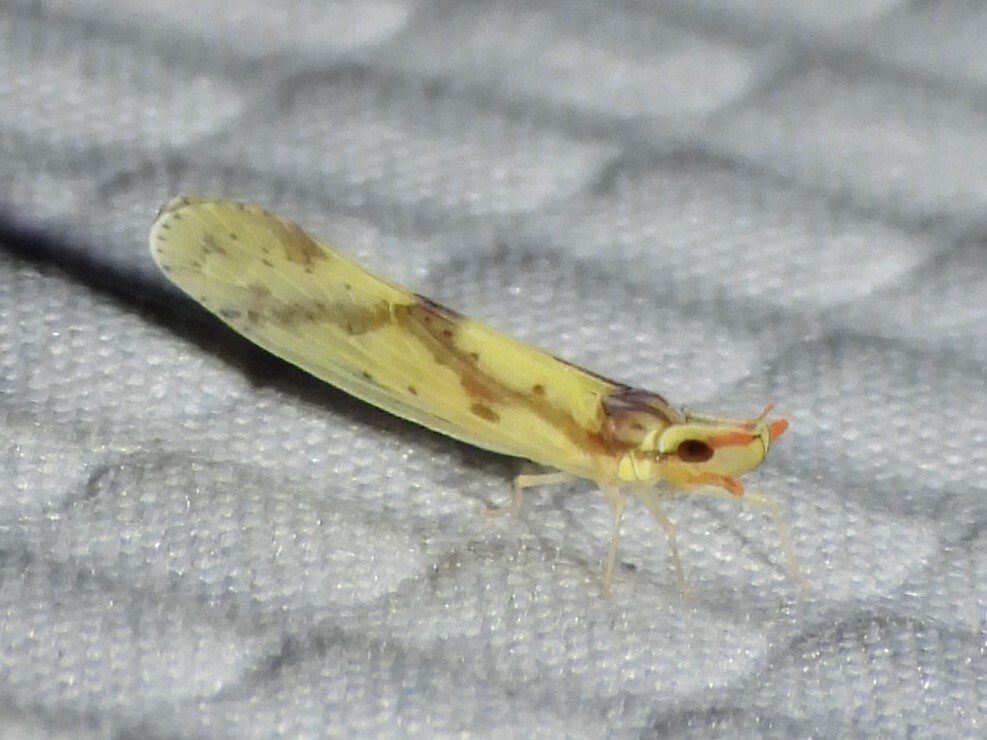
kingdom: Animalia
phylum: Arthropoda
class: Insecta
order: Hemiptera
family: Derbidae
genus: Otiocerus
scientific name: Otiocerus wolfii
